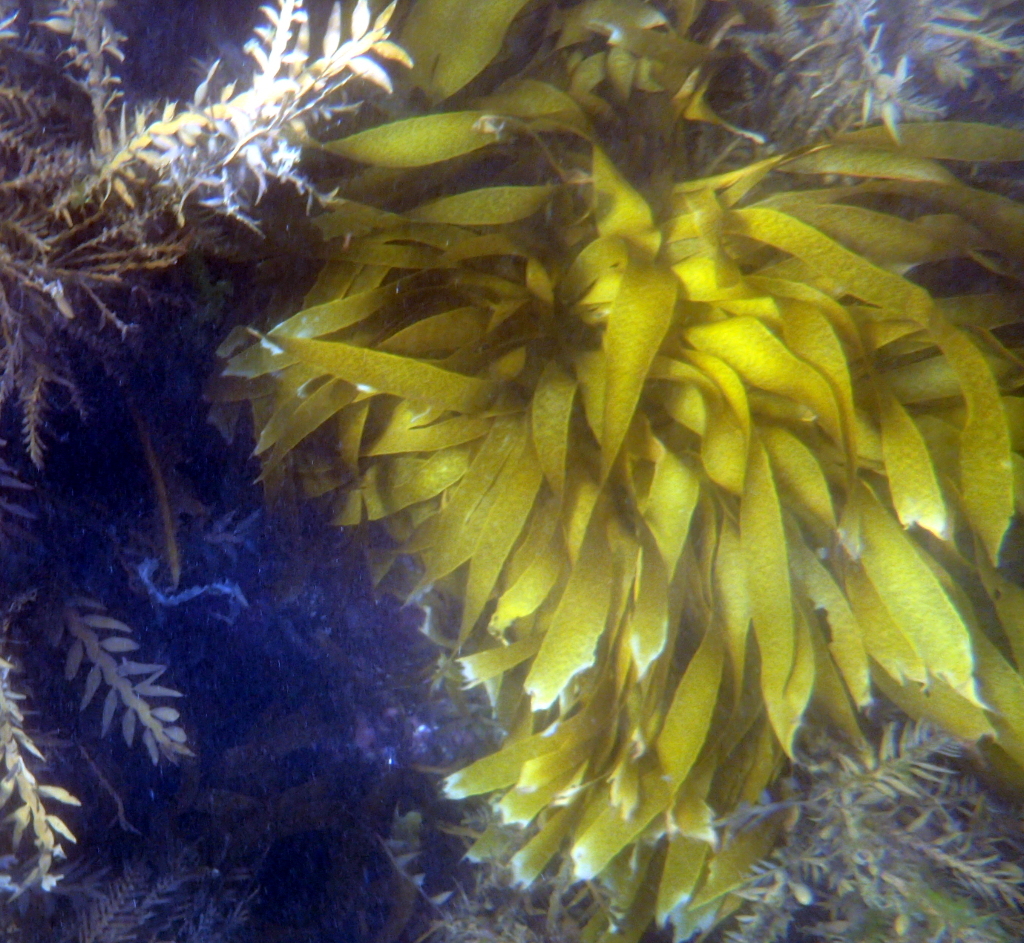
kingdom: Chromista
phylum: Ochrophyta
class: Phaeophyceae
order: Laminariales
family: Lessoniaceae
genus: Lessonia
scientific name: Lessonia variegata
